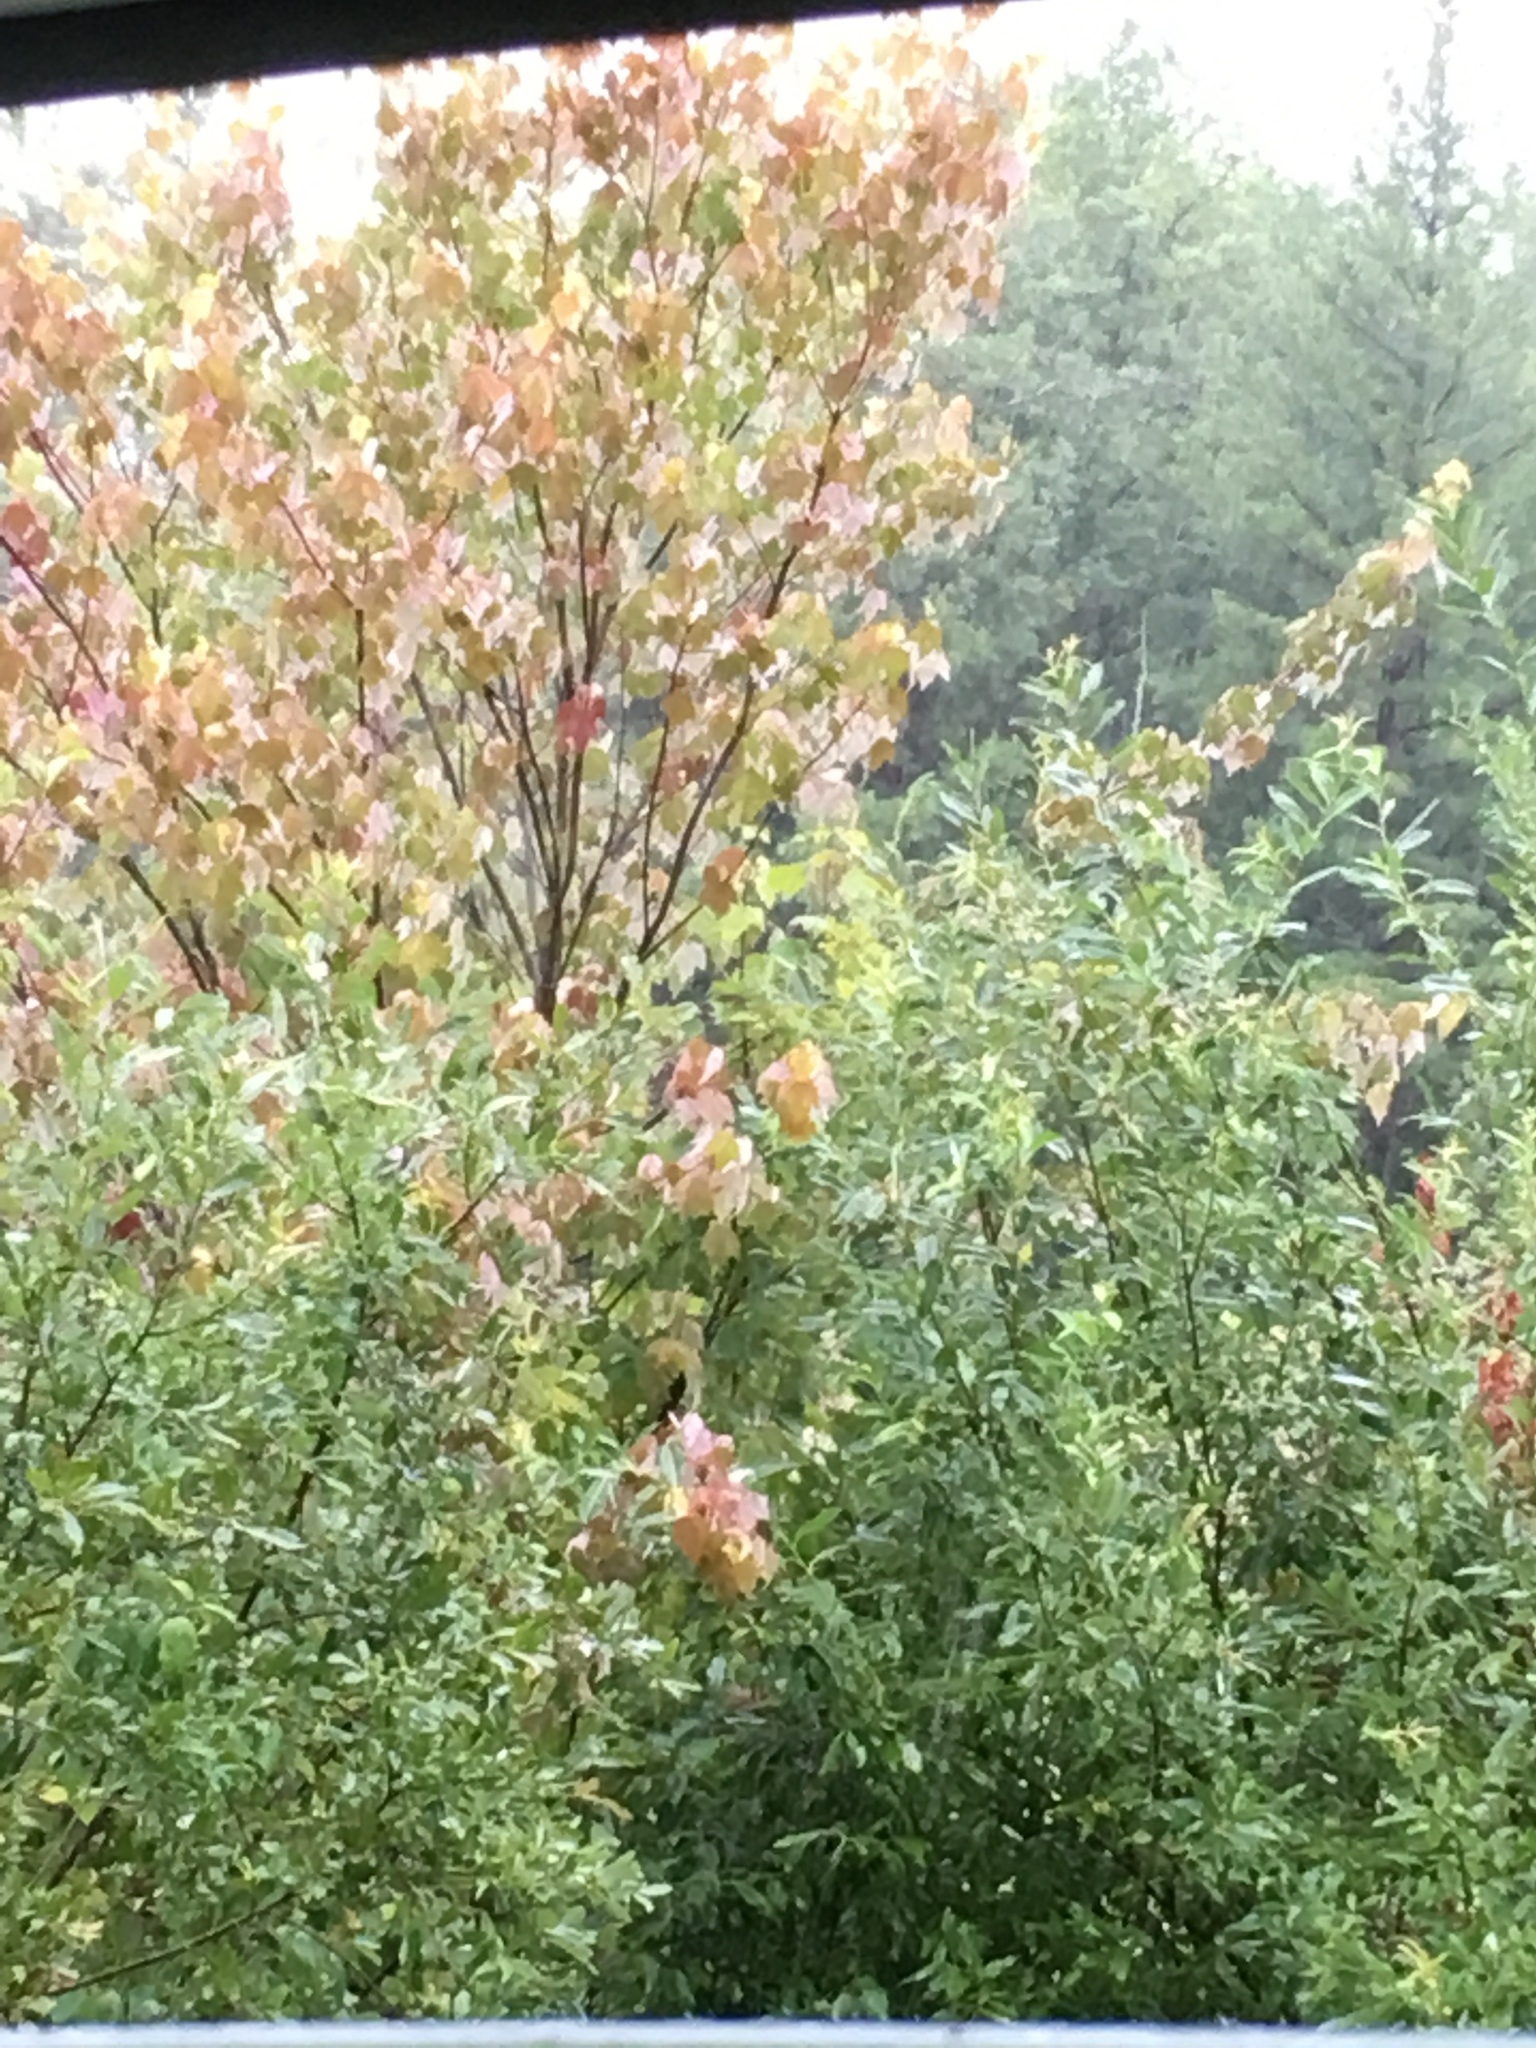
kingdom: Plantae
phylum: Tracheophyta
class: Magnoliopsida
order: Sapindales
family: Sapindaceae
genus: Acer
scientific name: Acer rubrum
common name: Red maple
